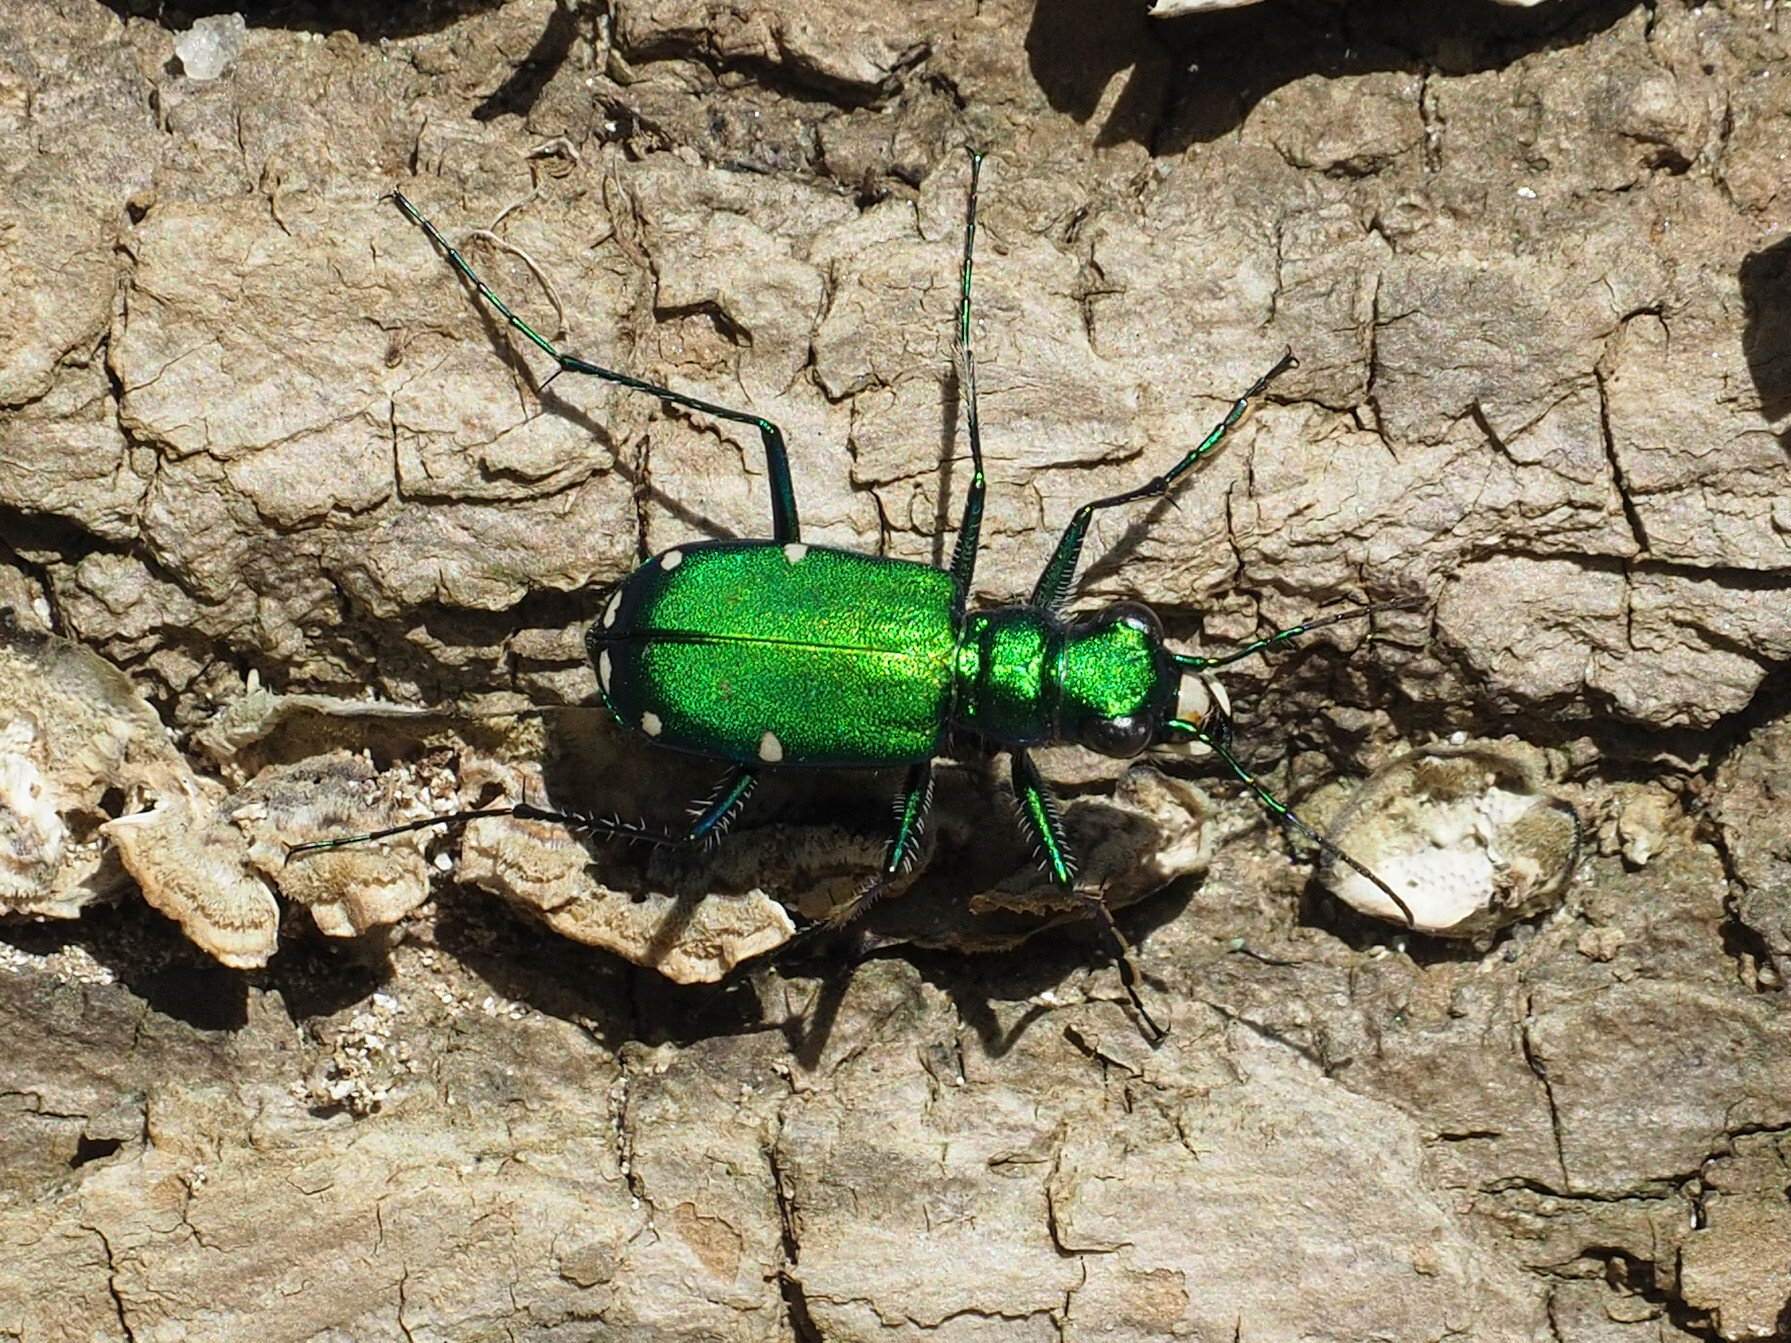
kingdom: Animalia
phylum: Arthropoda
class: Insecta
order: Coleoptera
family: Carabidae
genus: Cicindela
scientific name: Cicindela sexguttata
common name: Six-spotted tiger beetle
